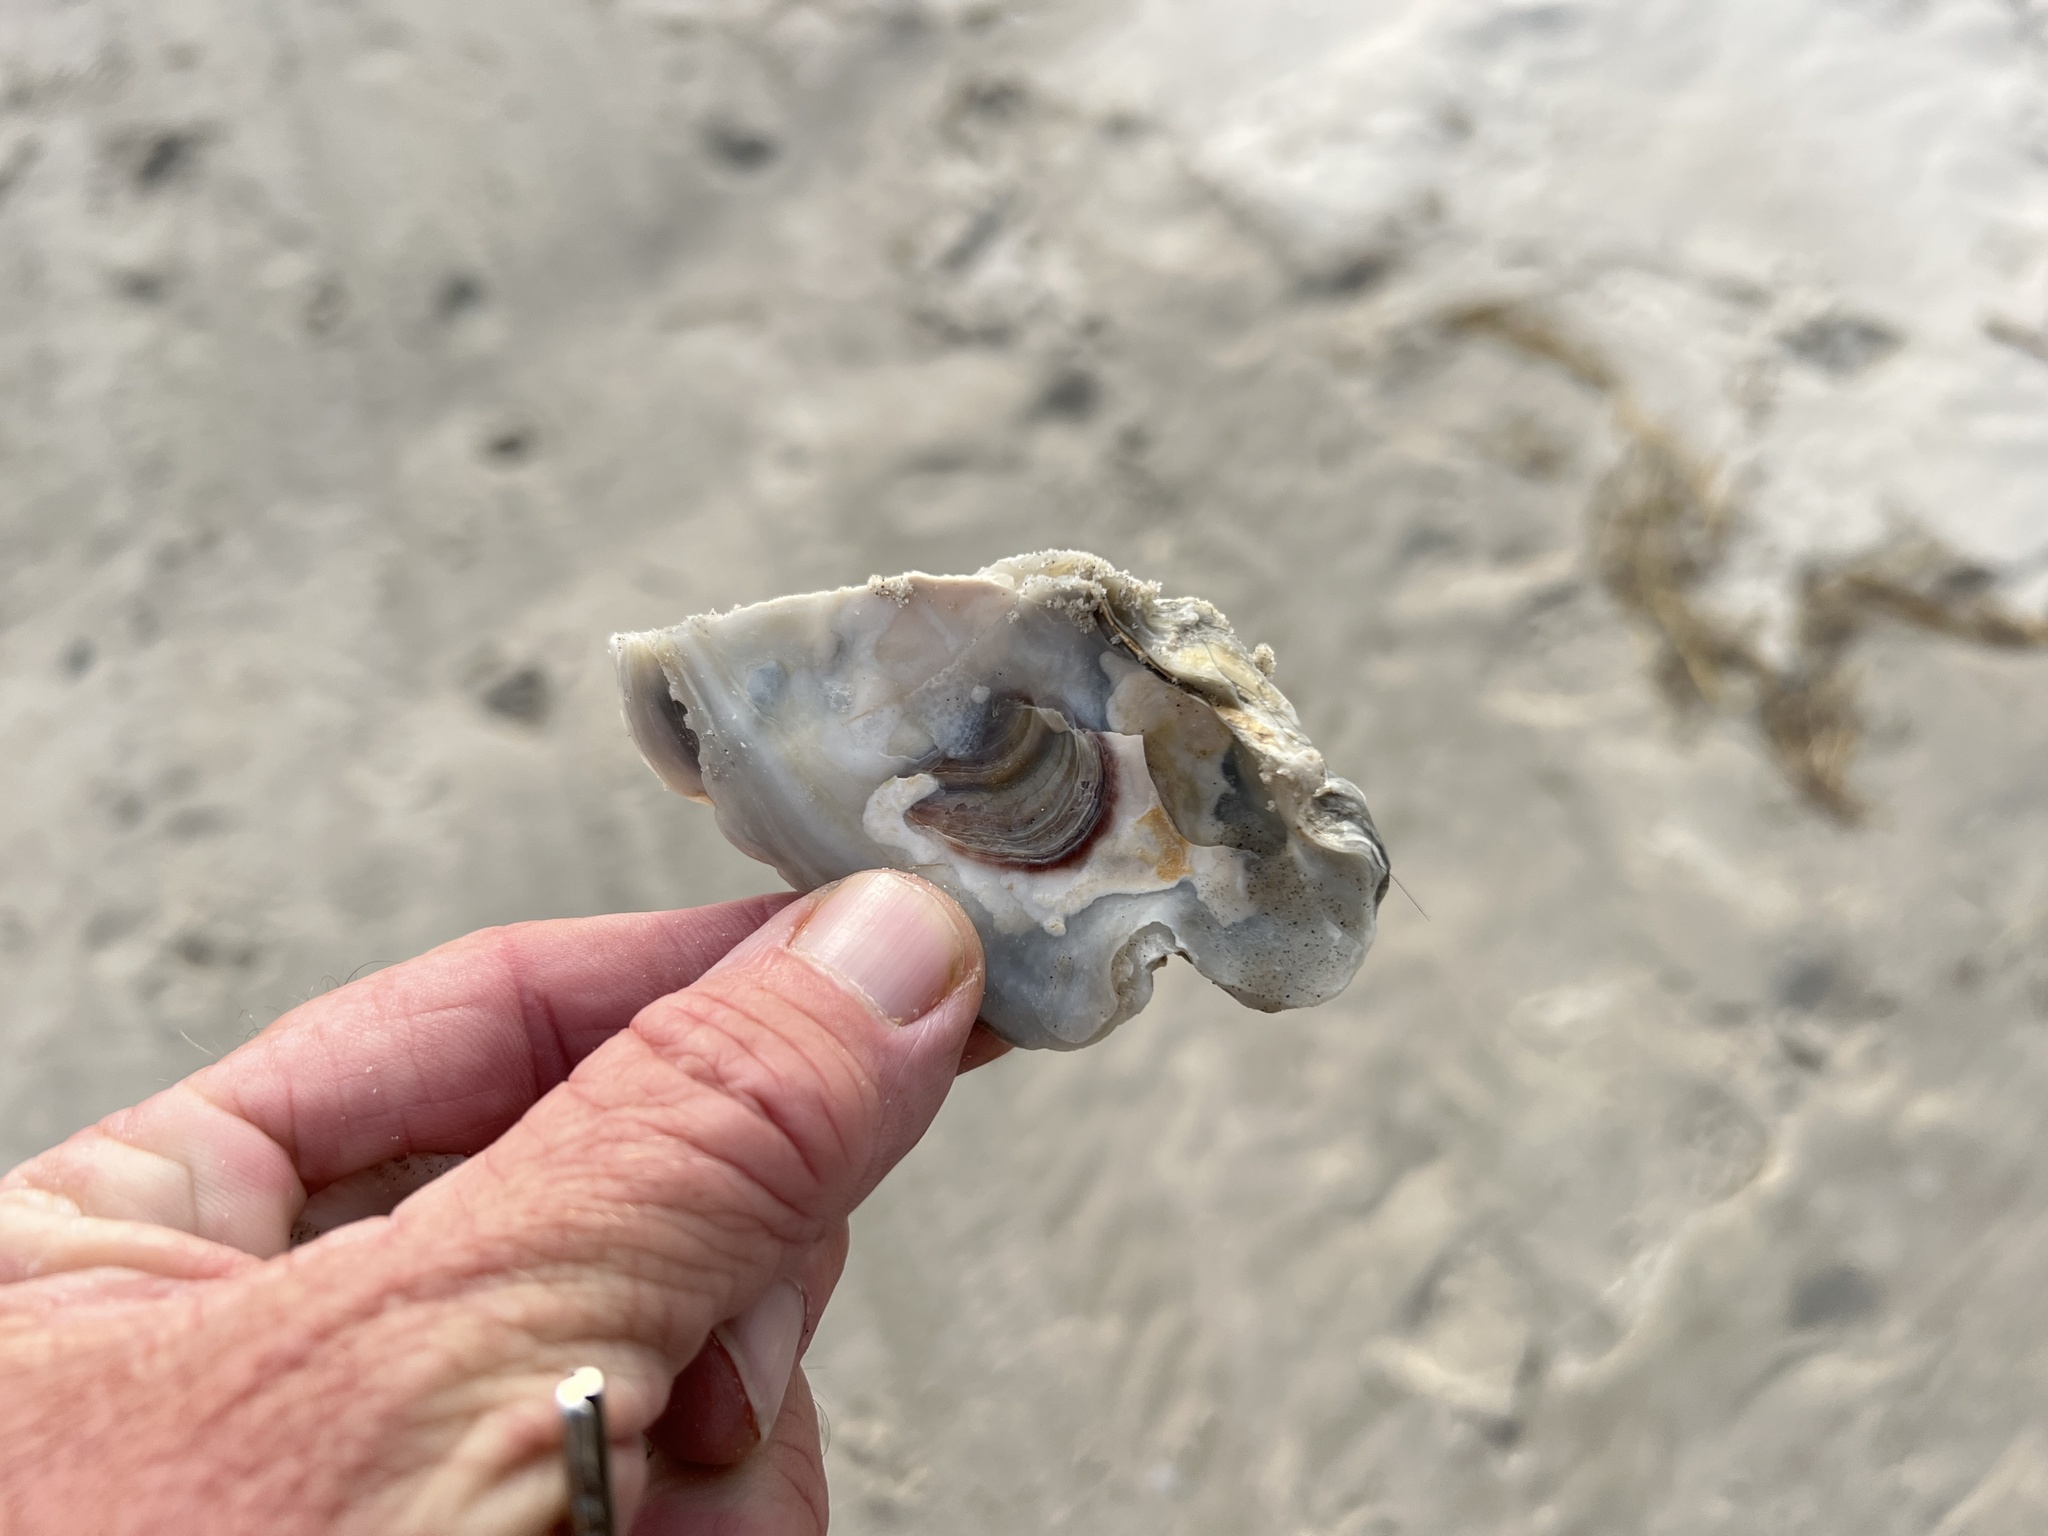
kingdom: Animalia
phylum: Mollusca
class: Bivalvia
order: Ostreida
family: Ostreidae
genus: Crassostrea
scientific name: Crassostrea virginica
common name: American oyster
